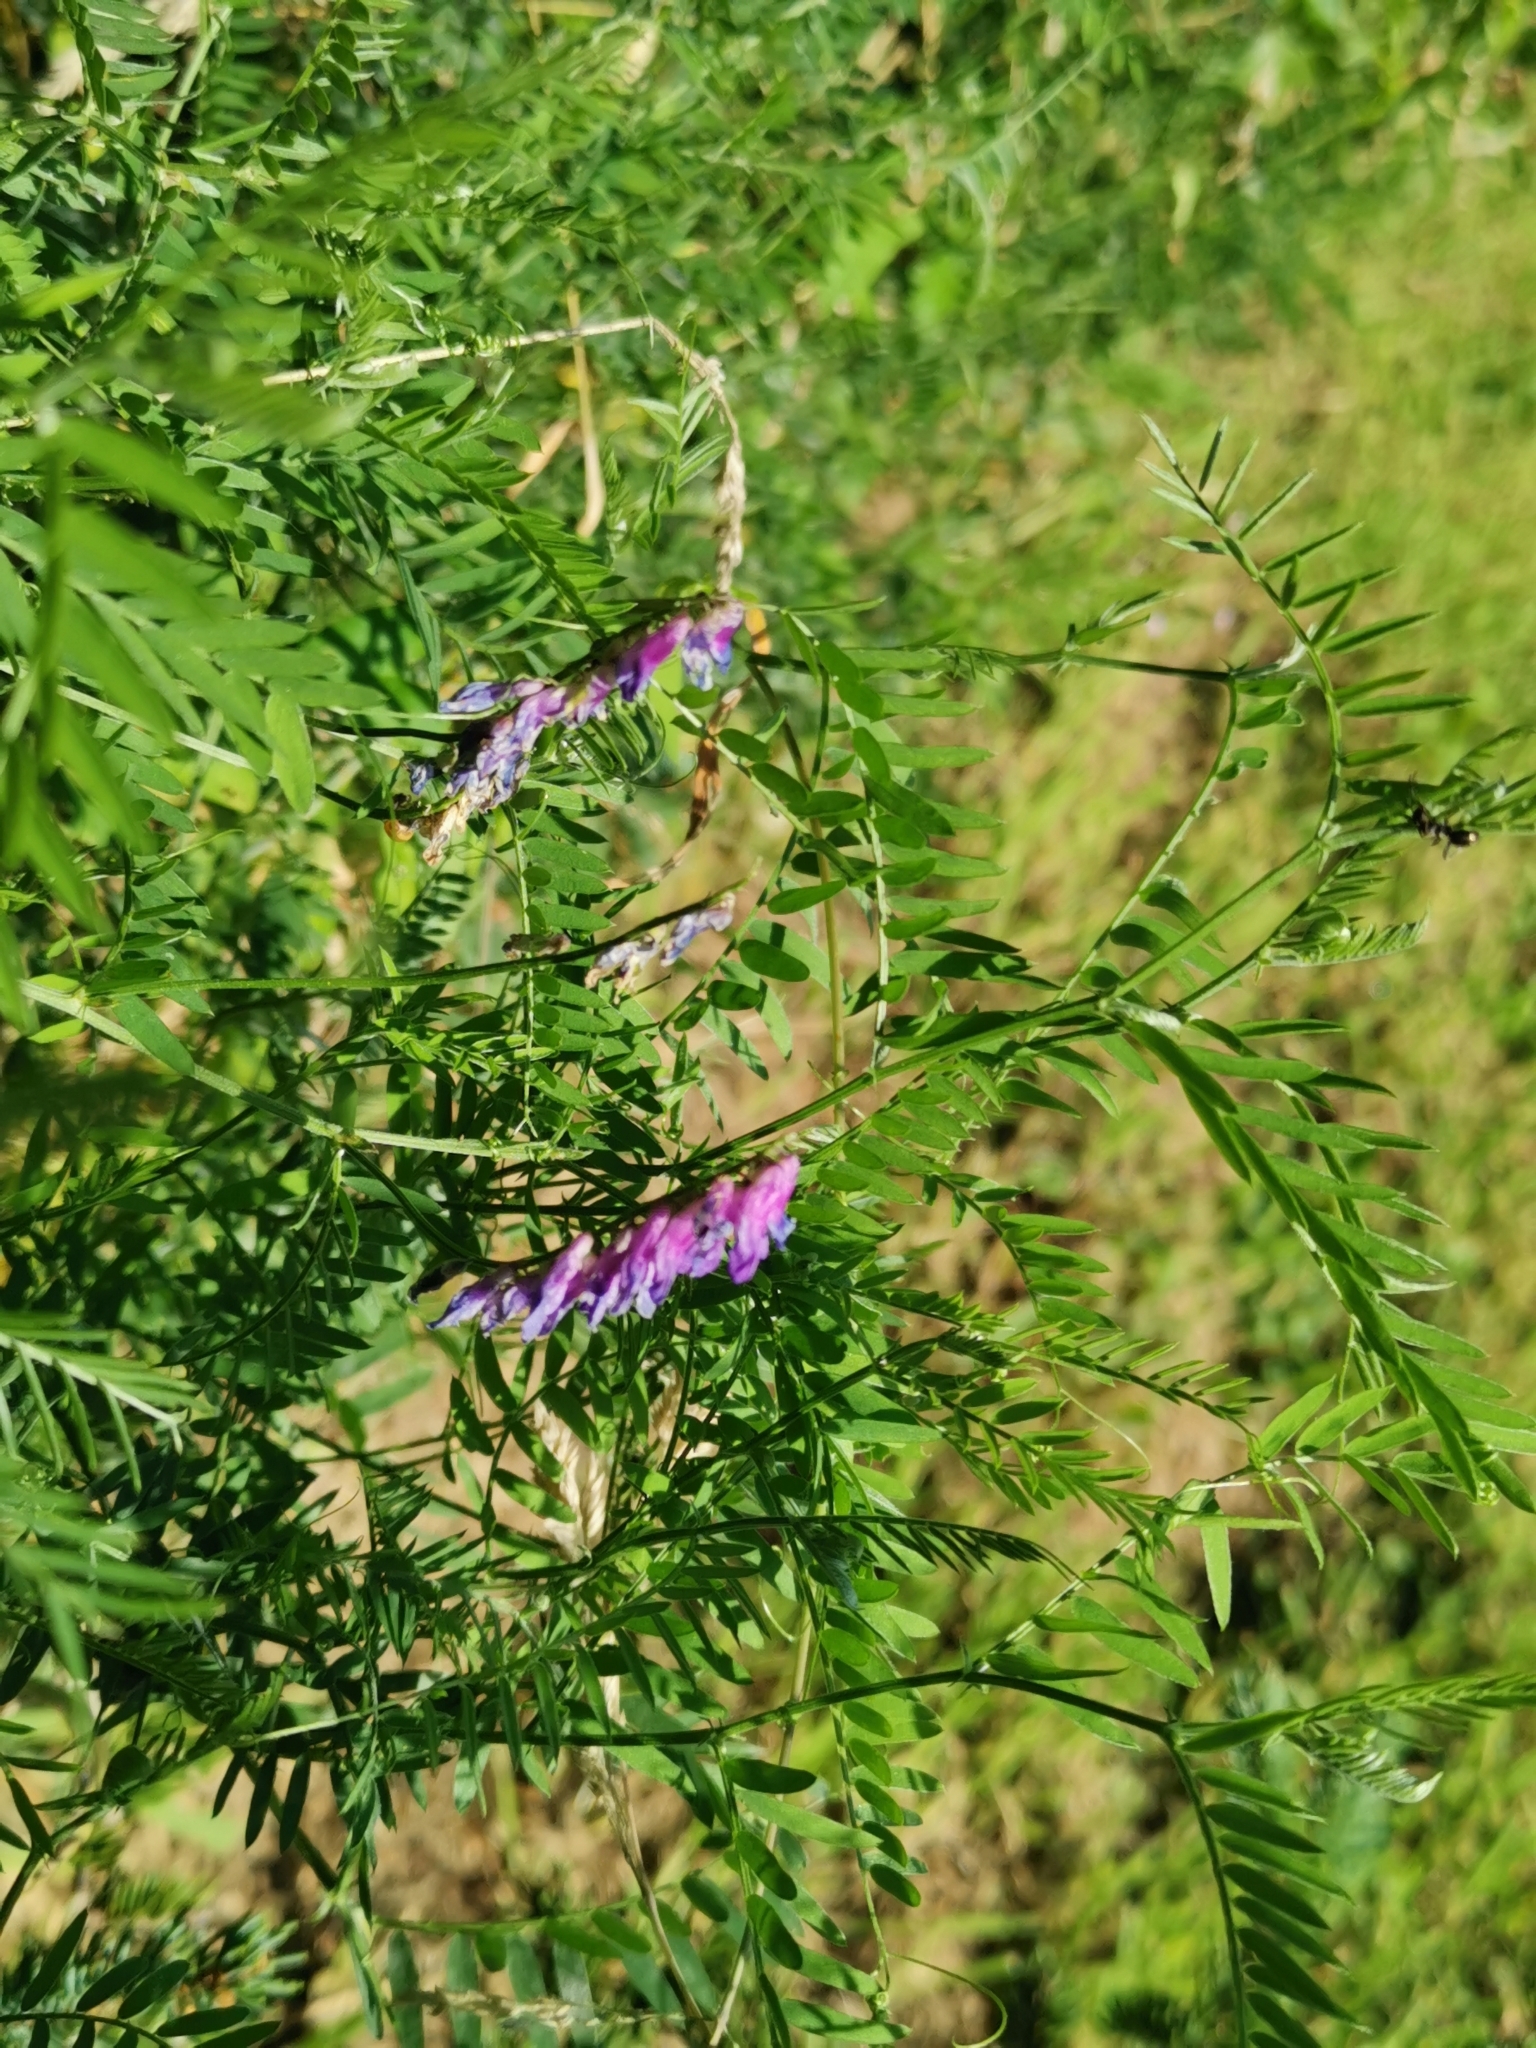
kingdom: Plantae
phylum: Tracheophyta
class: Magnoliopsida
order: Fabales
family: Fabaceae
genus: Vicia
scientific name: Vicia cracca
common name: Bird vetch
